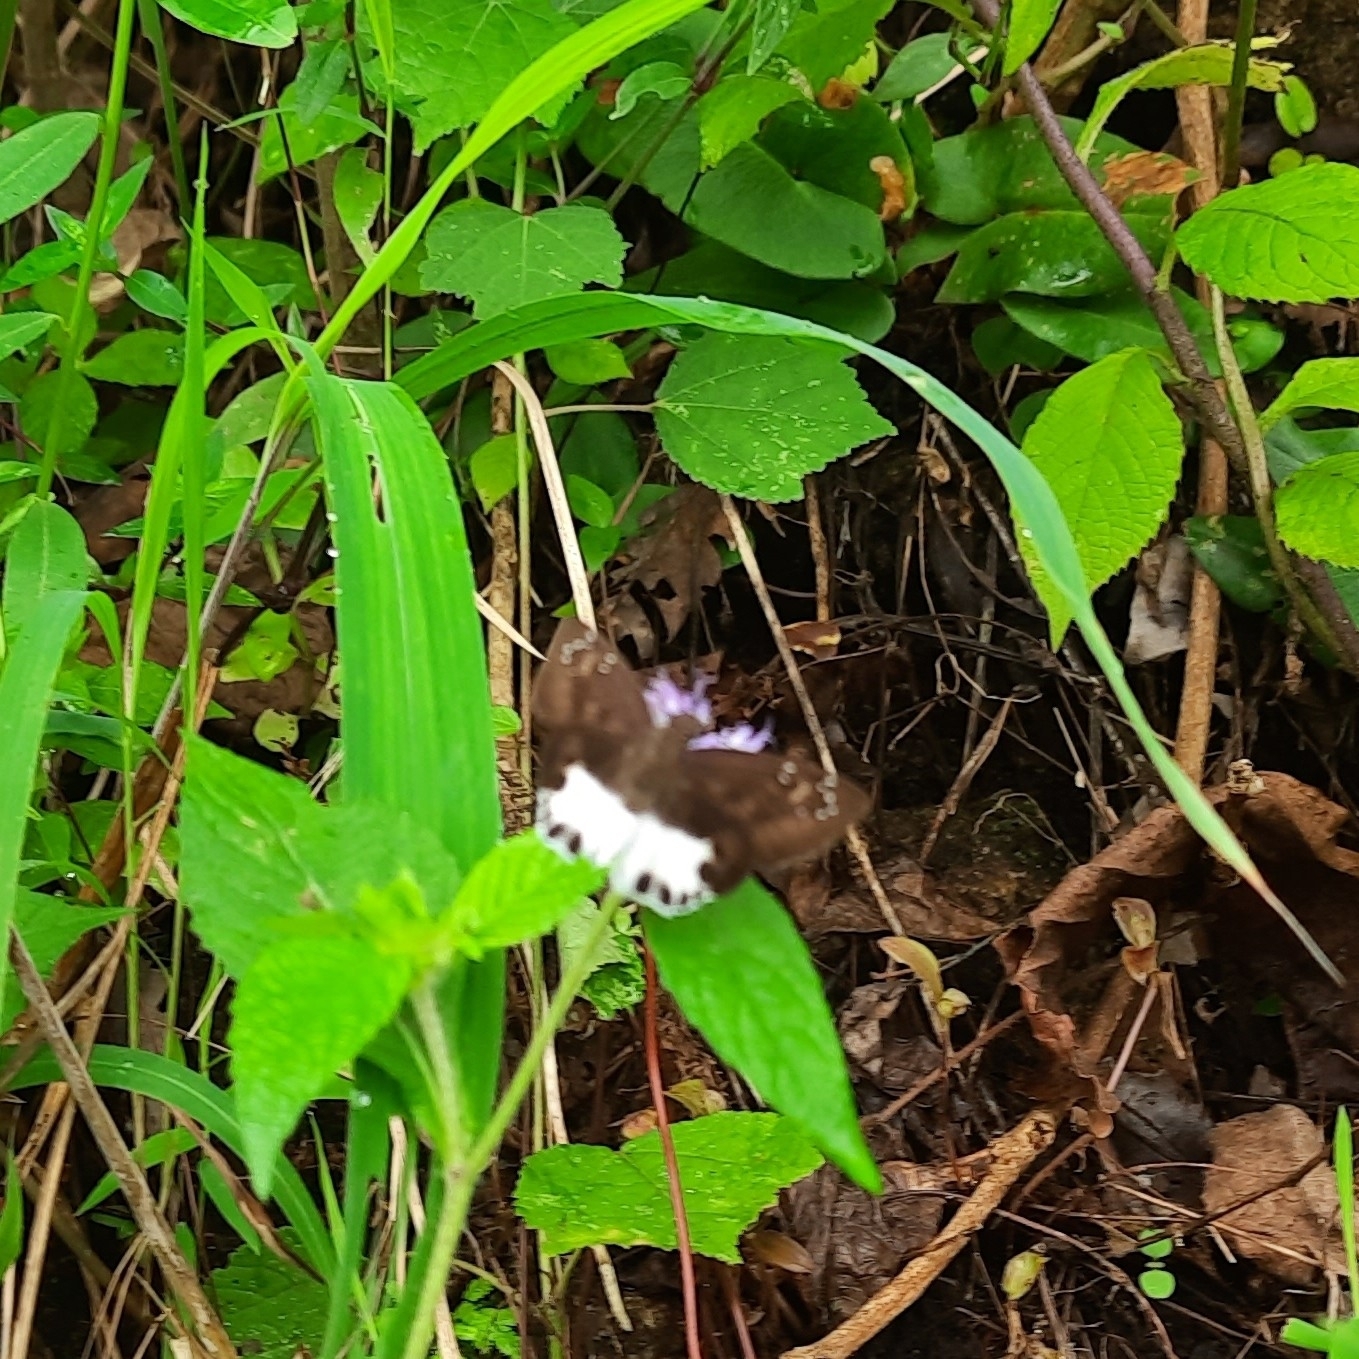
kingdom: Animalia
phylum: Arthropoda
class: Insecta
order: Lepidoptera
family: Hesperiidae
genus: Tagiades
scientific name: Tagiades litigiosa
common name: Water snow flat
